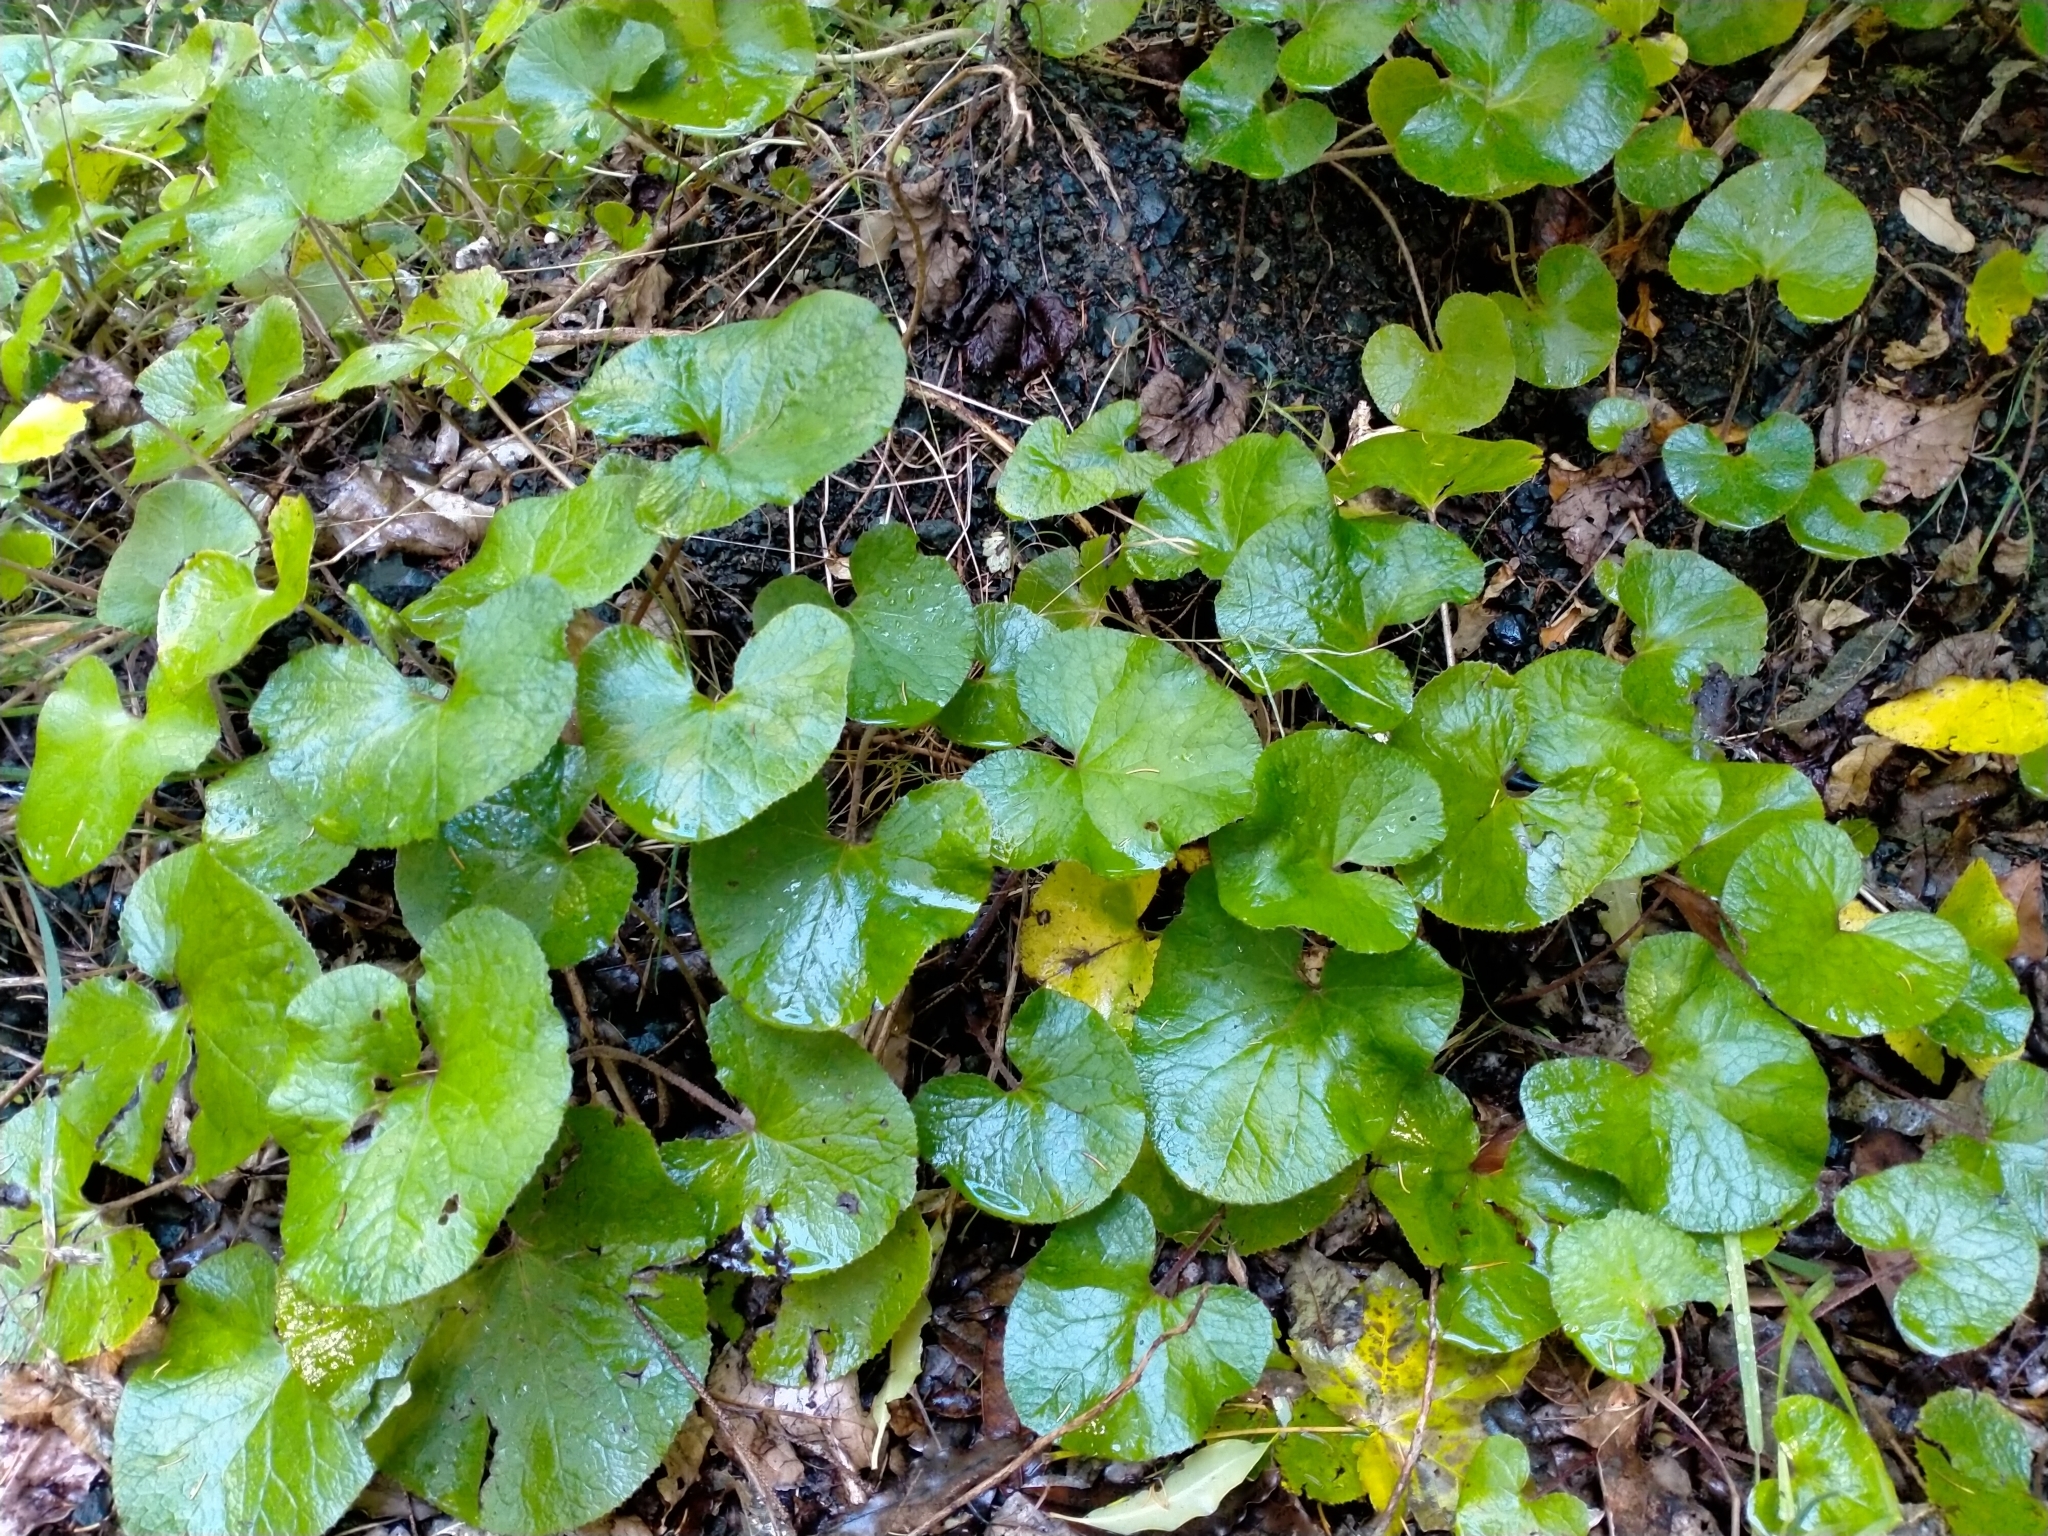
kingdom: Plantae
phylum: Tracheophyta
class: Magnoliopsida
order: Asterales
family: Asteraceae
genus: Petasites
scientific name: Petasites pyrenaicus
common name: Winter heliotrope
